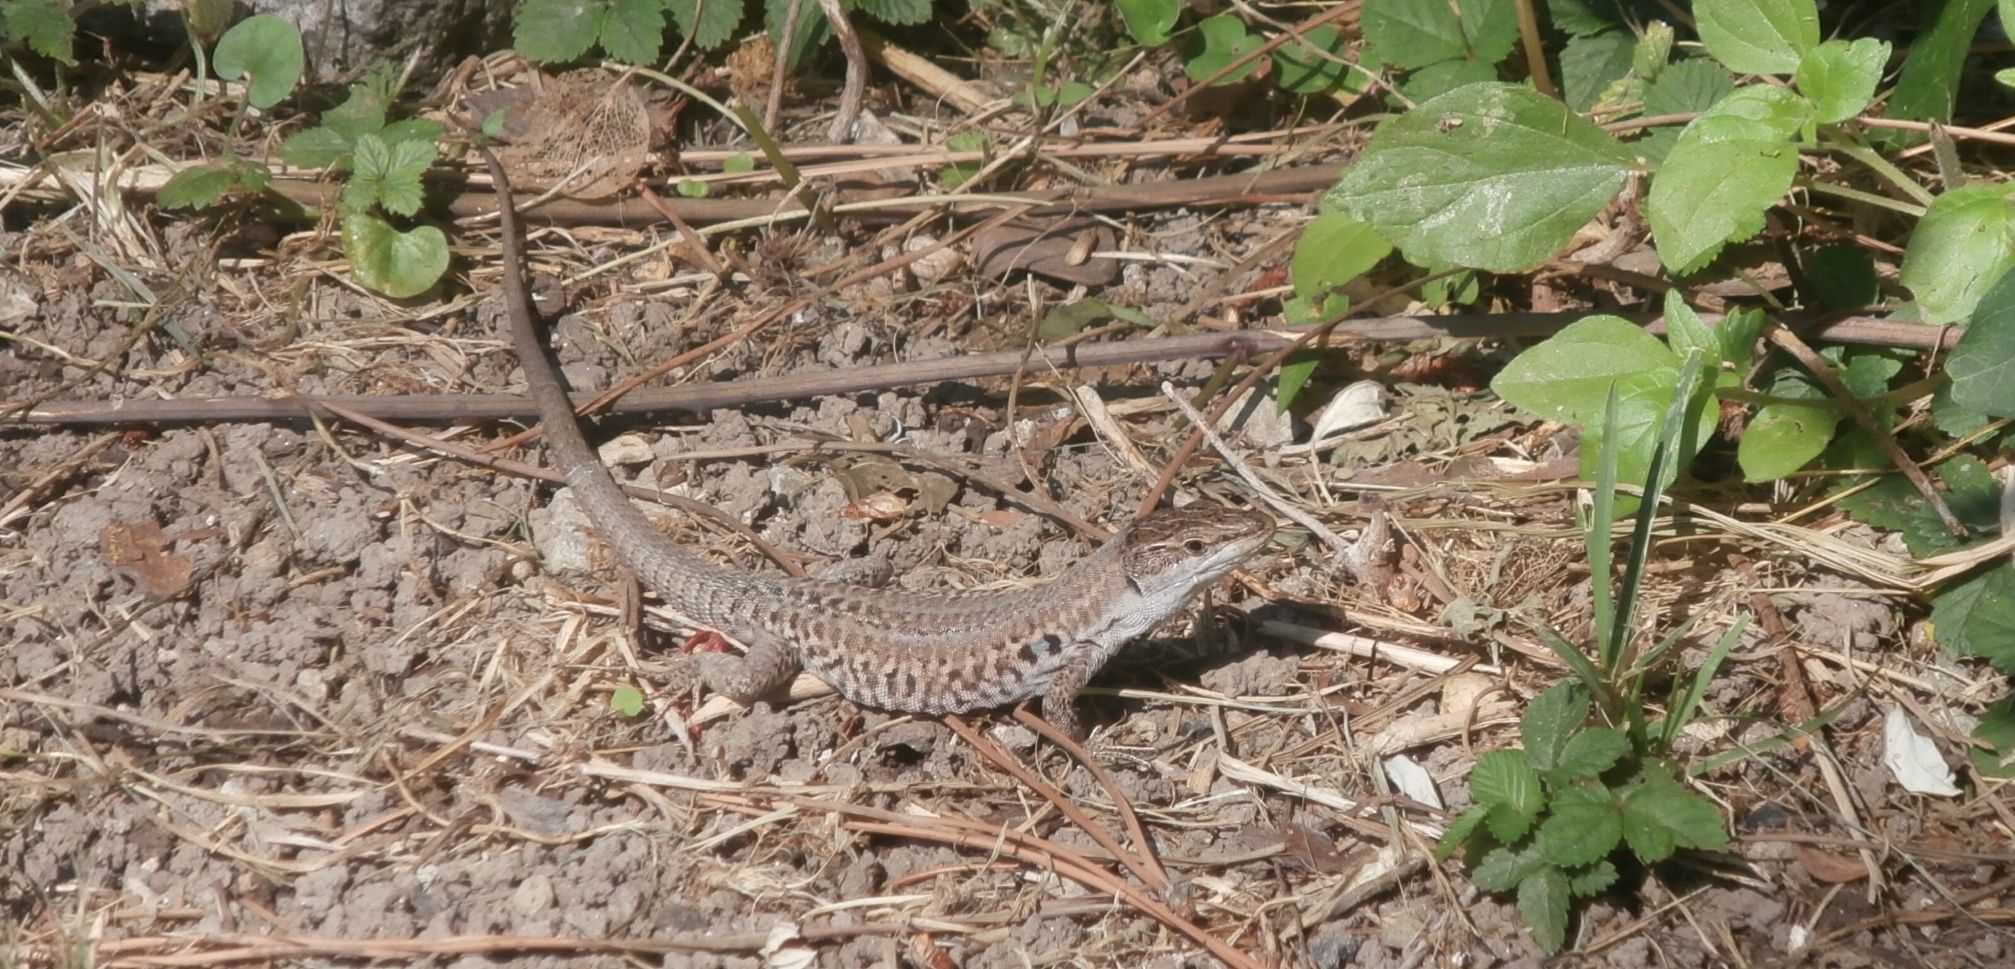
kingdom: Animalia
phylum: Chordata
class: Squamata
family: Lacertidae
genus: Podarcis
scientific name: Podarcis siculus
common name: Italian wall lizard
